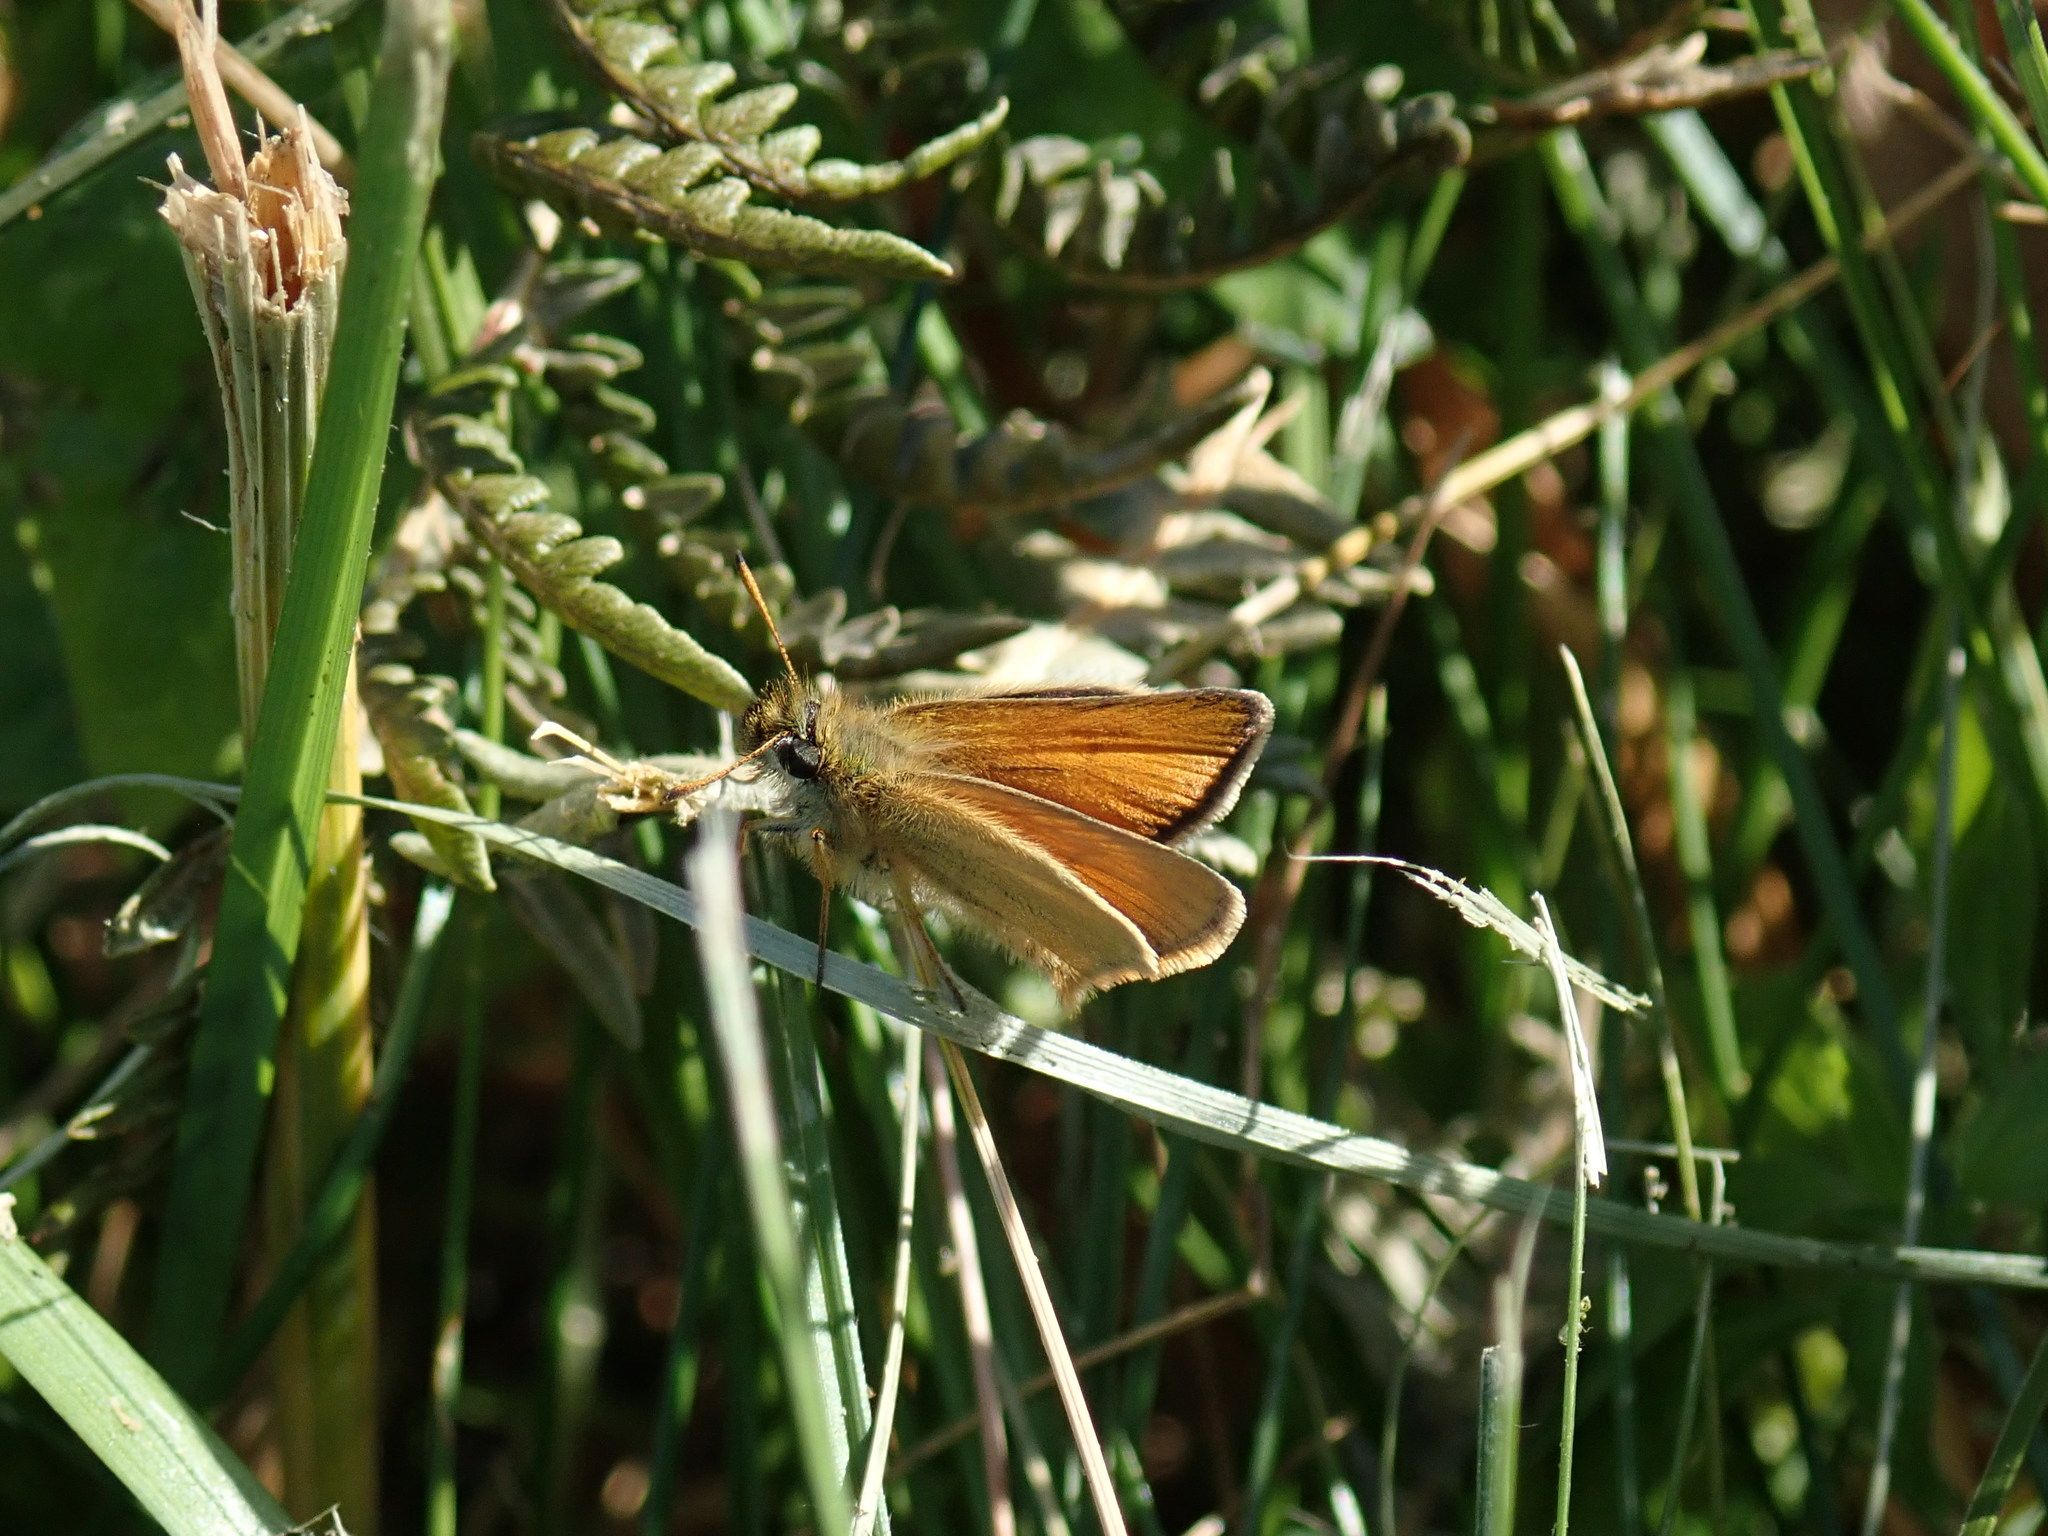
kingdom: Animalia
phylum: Arthropoda
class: Insecta
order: Lepidoptera
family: Hesperiidae
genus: Thymelicus
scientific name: Thymelicus lineola
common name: Essex skipper
